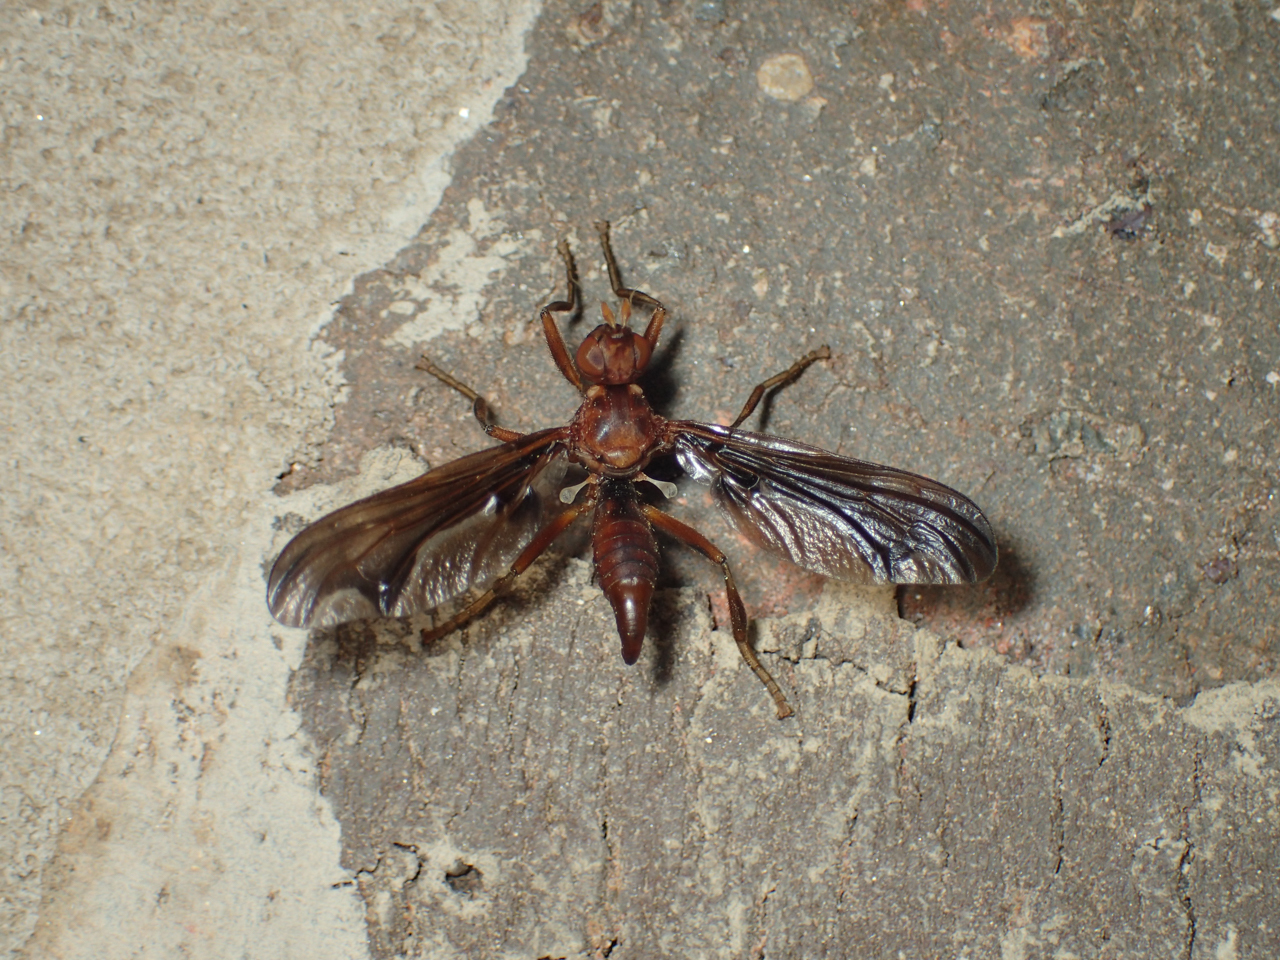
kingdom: Animalia
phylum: Arthropoda
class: Insecta
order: Diptera
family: Pyrgotidae
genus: Pyrgota
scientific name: Pyrgota undata
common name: Waved light fly
